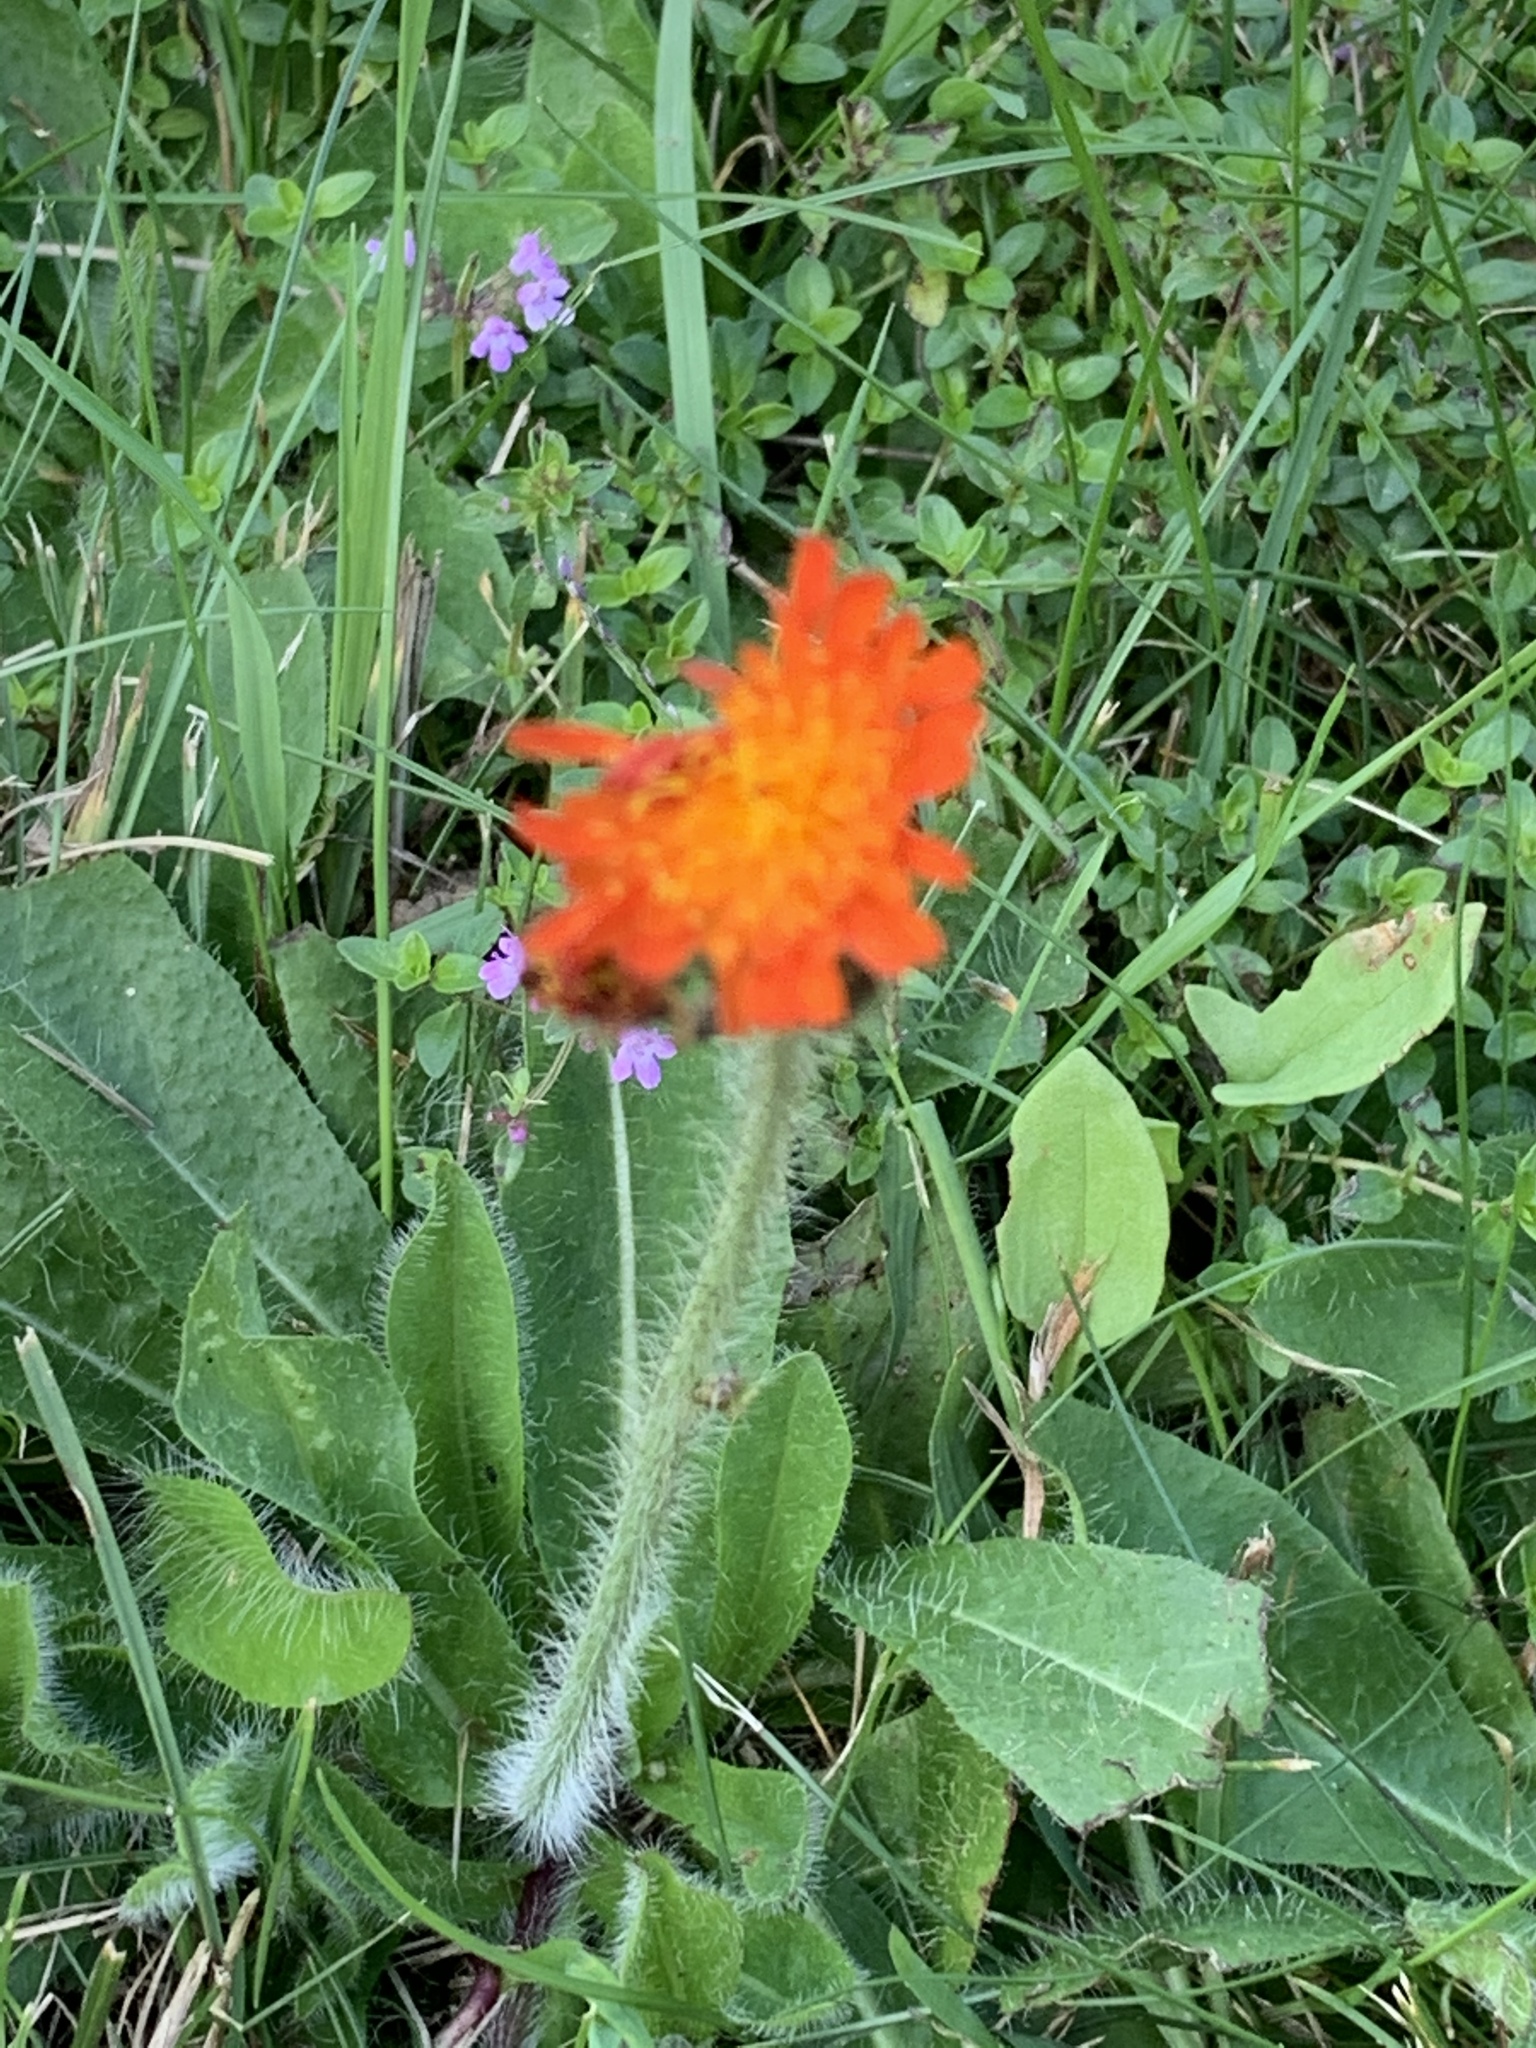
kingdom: Plantae
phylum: Tracheophyta
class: Magnoliopsida
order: Asterales
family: Asteraceae
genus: Pilosella
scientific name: Pilosella aurantiaca
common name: Fox-and-cubs
